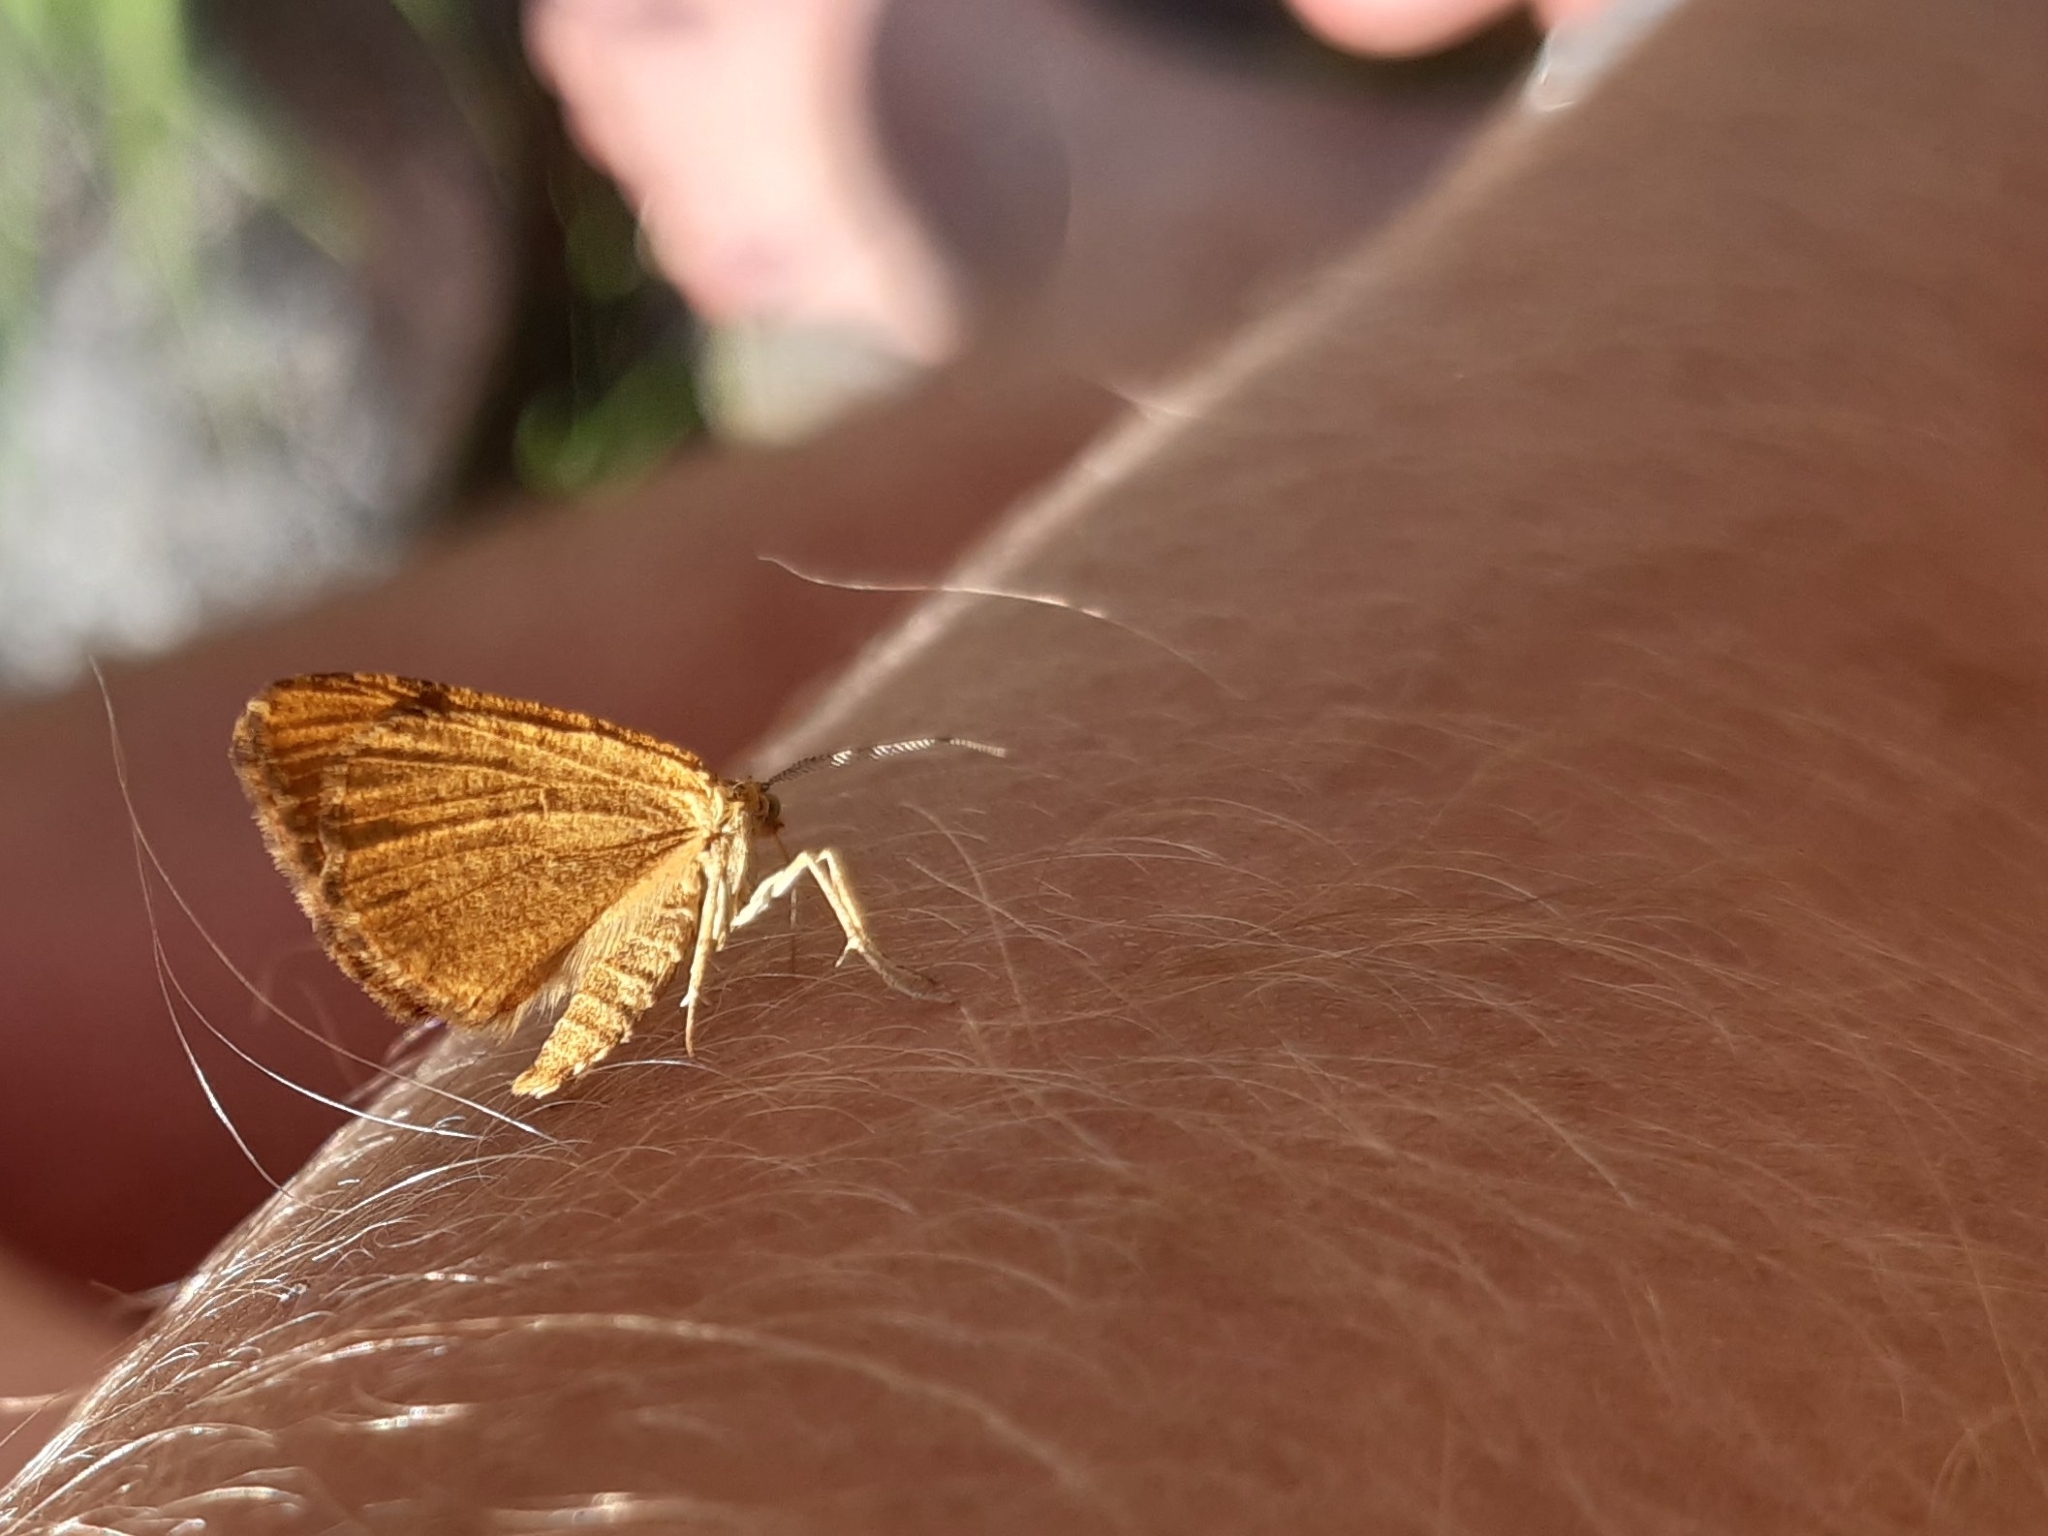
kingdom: Animalia
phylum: Arthropoda
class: Insecta
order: Lepidoptera
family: Geometridae
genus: Macaria
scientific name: Macaria brunneata
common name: Rannoch looper
